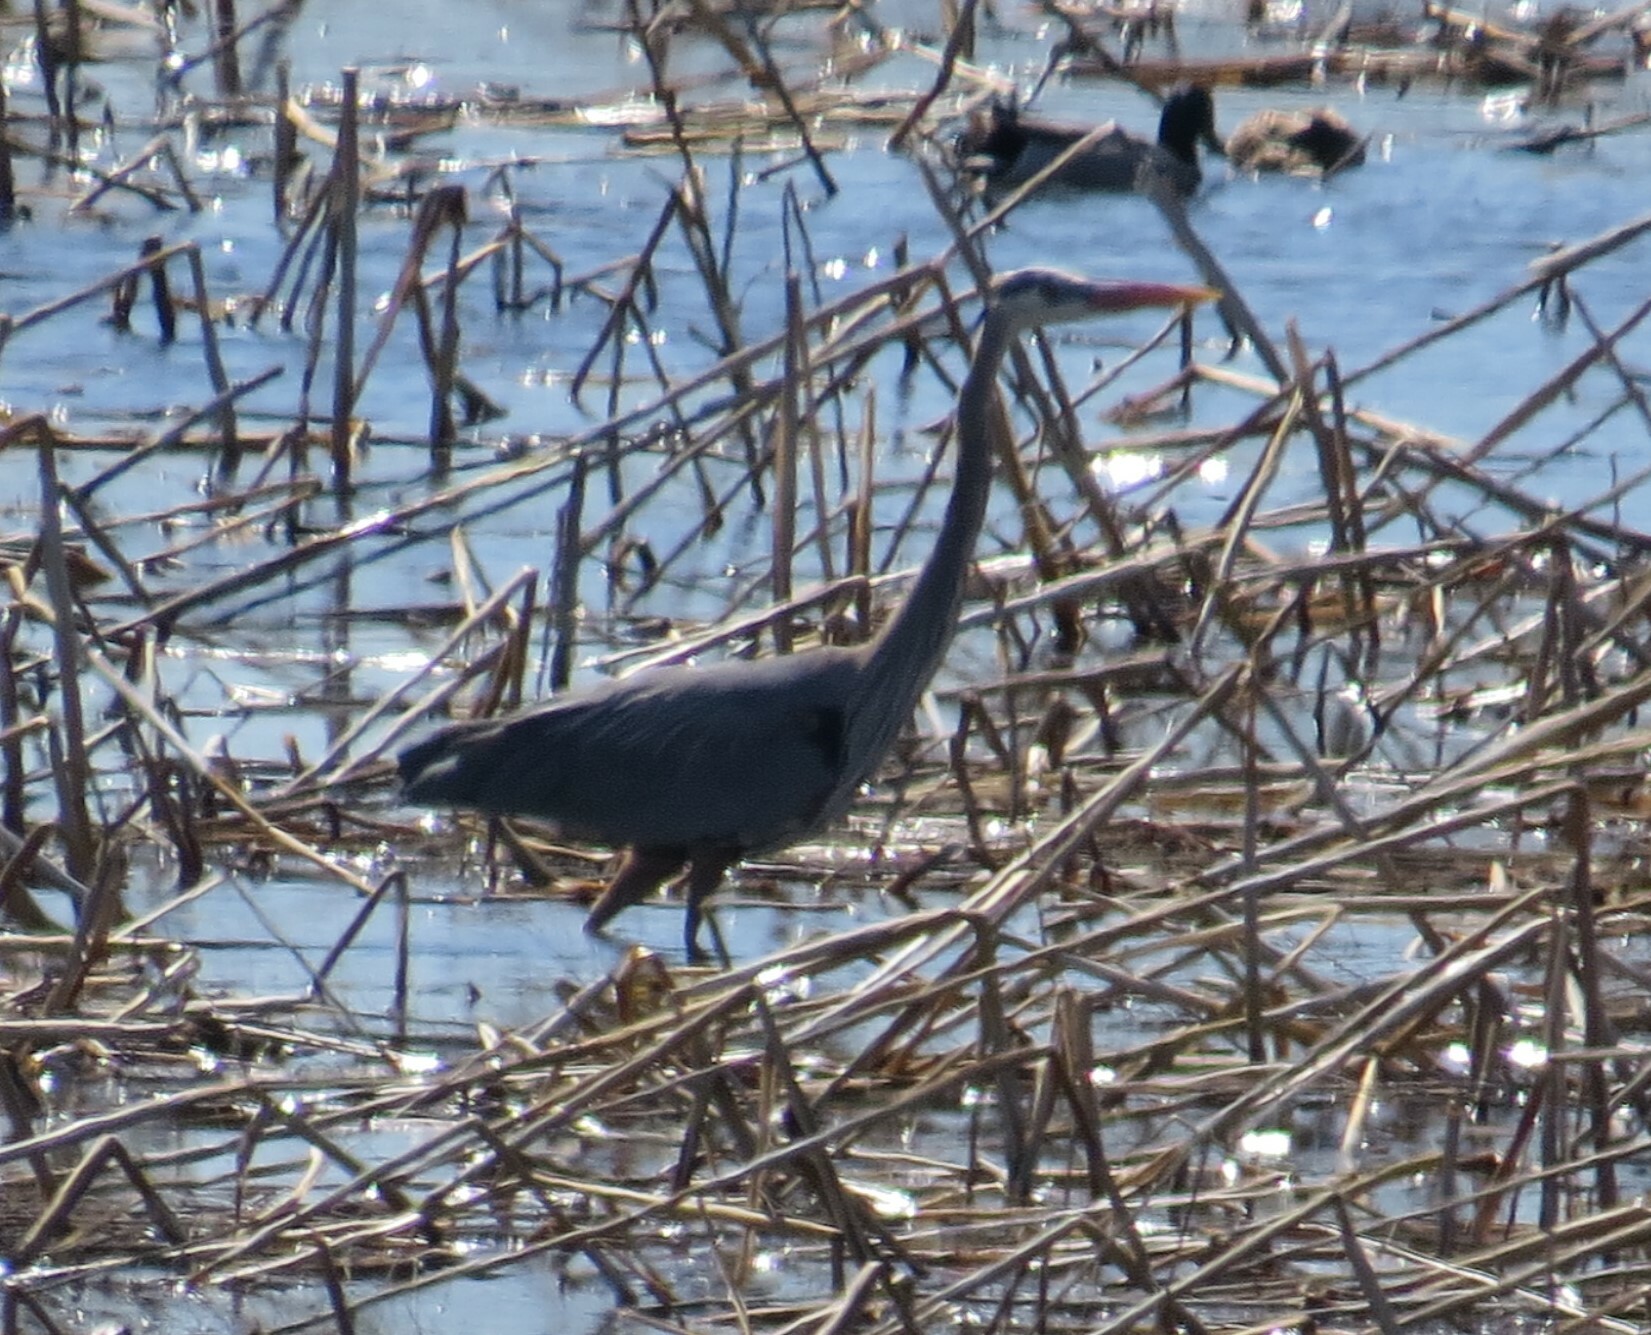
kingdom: Animalia
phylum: Chordata
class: Aves
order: Pelecaniformes
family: Ardeidae
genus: Ardea
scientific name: Ardea herodias
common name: Great blue heron
